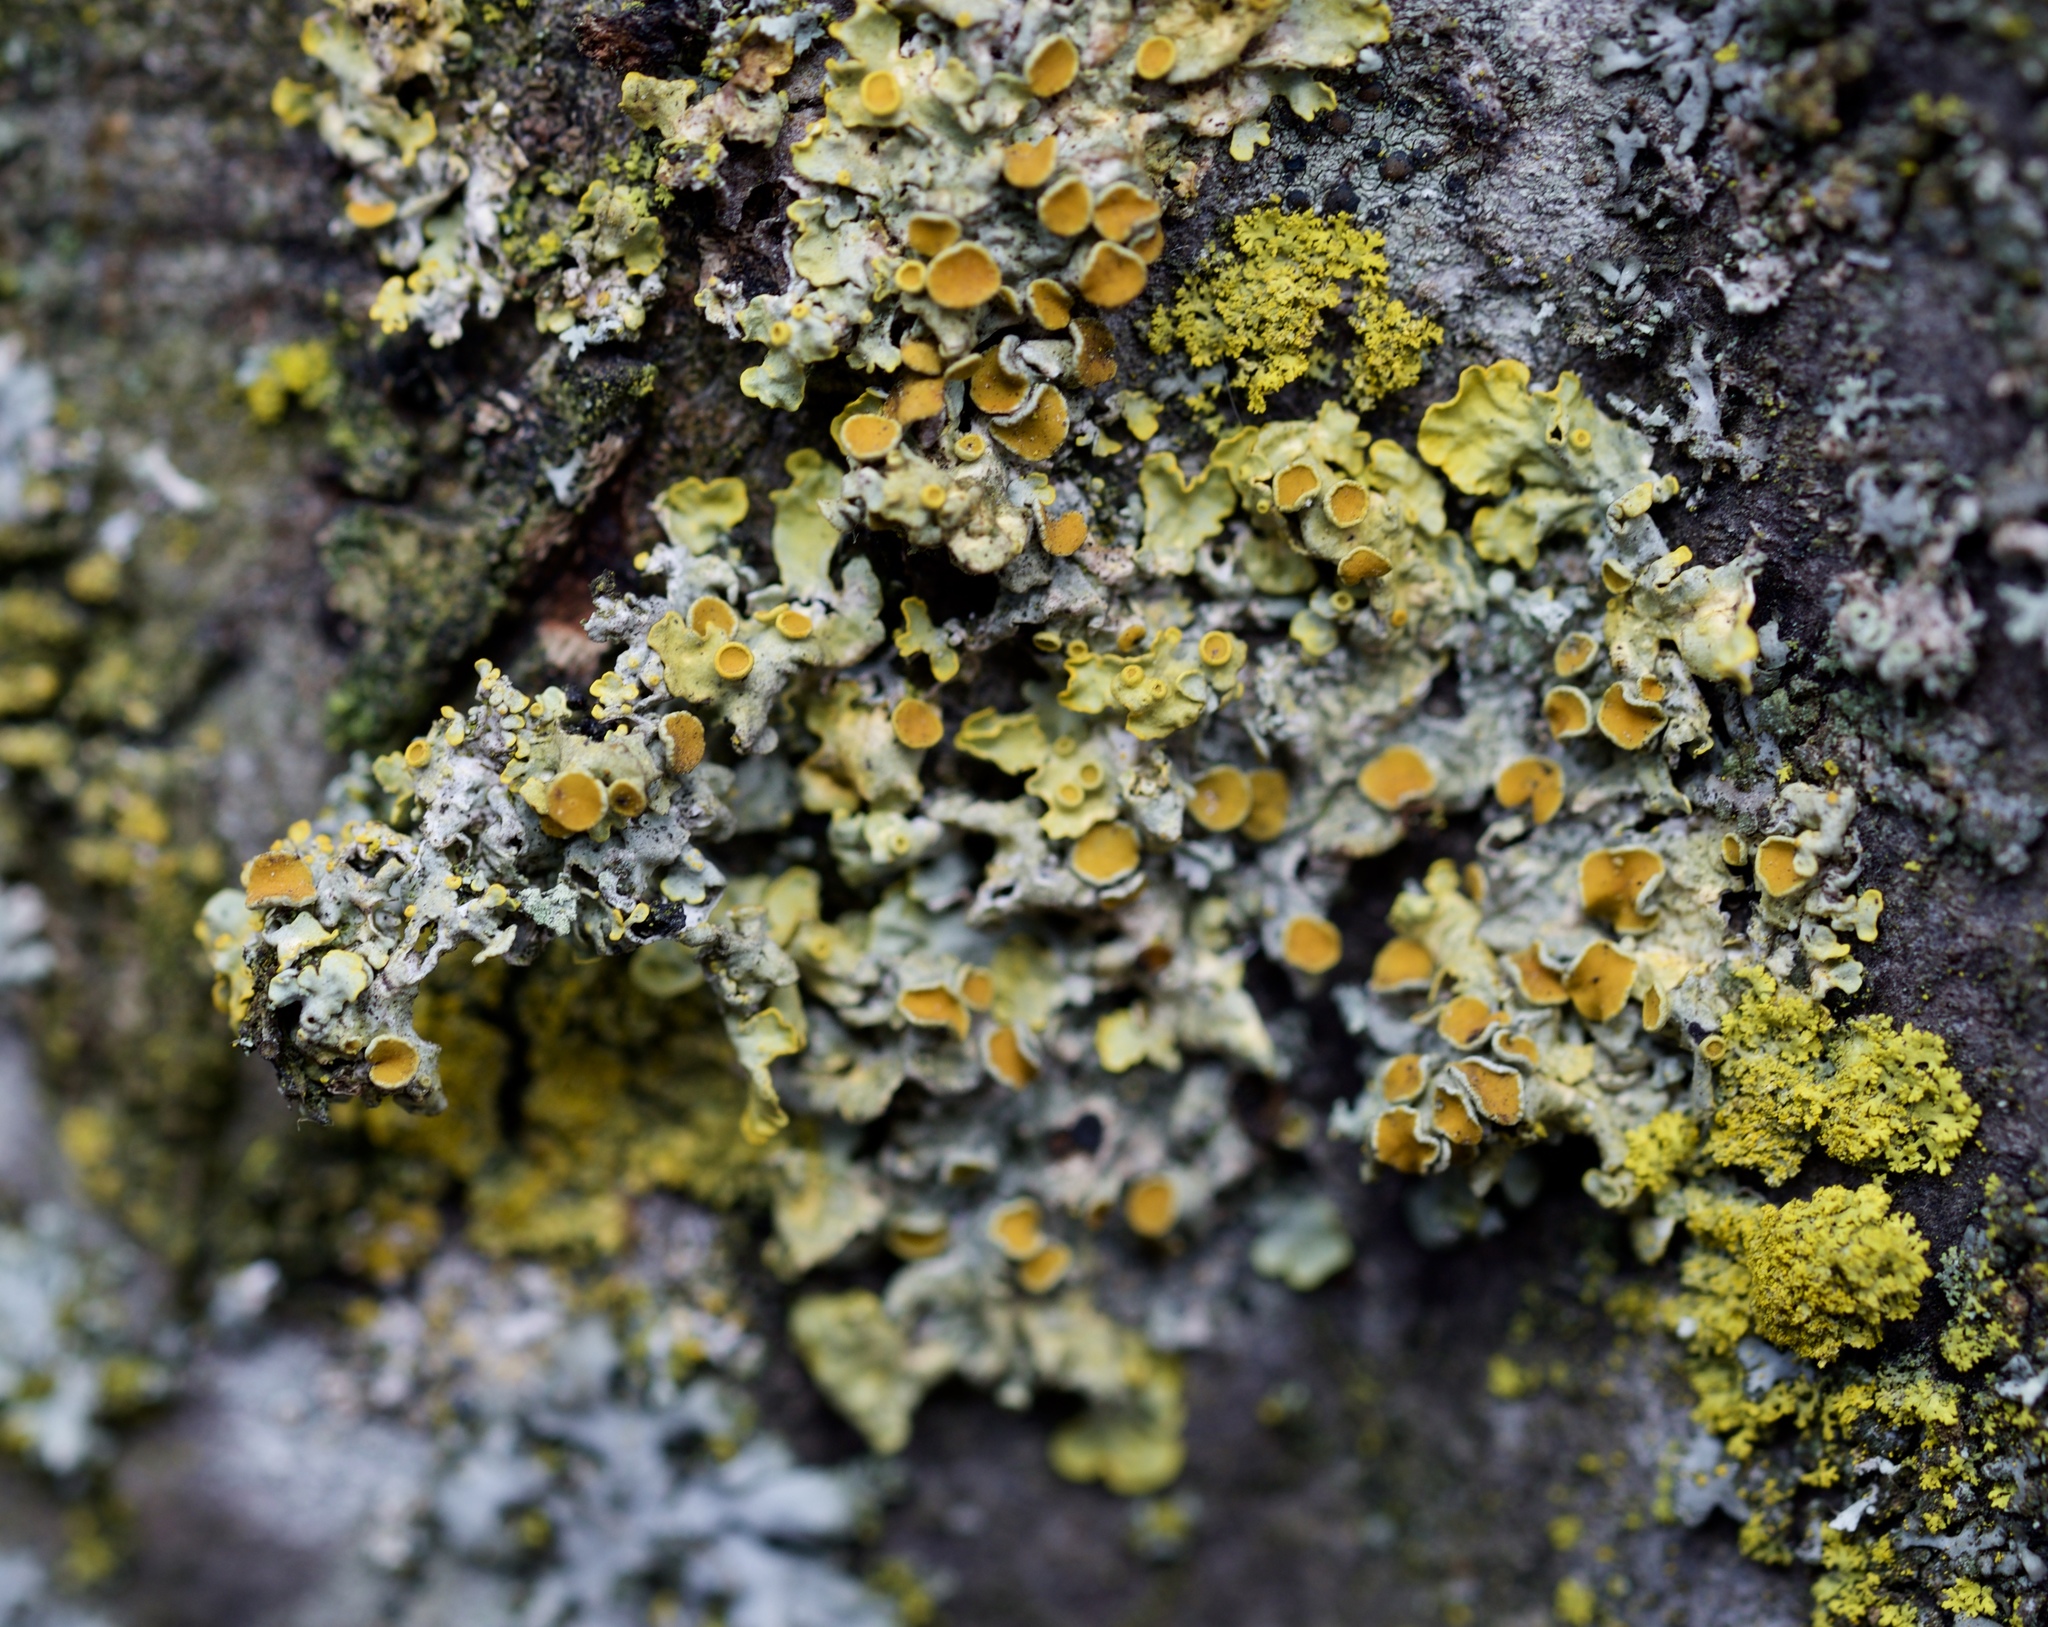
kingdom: Fungi
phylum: Ascomycota
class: Lecanoromycetes
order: Teloschistales
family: Teloschistaceae
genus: Xanthoria
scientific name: Xanthoria parietina
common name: Common orange lichen
